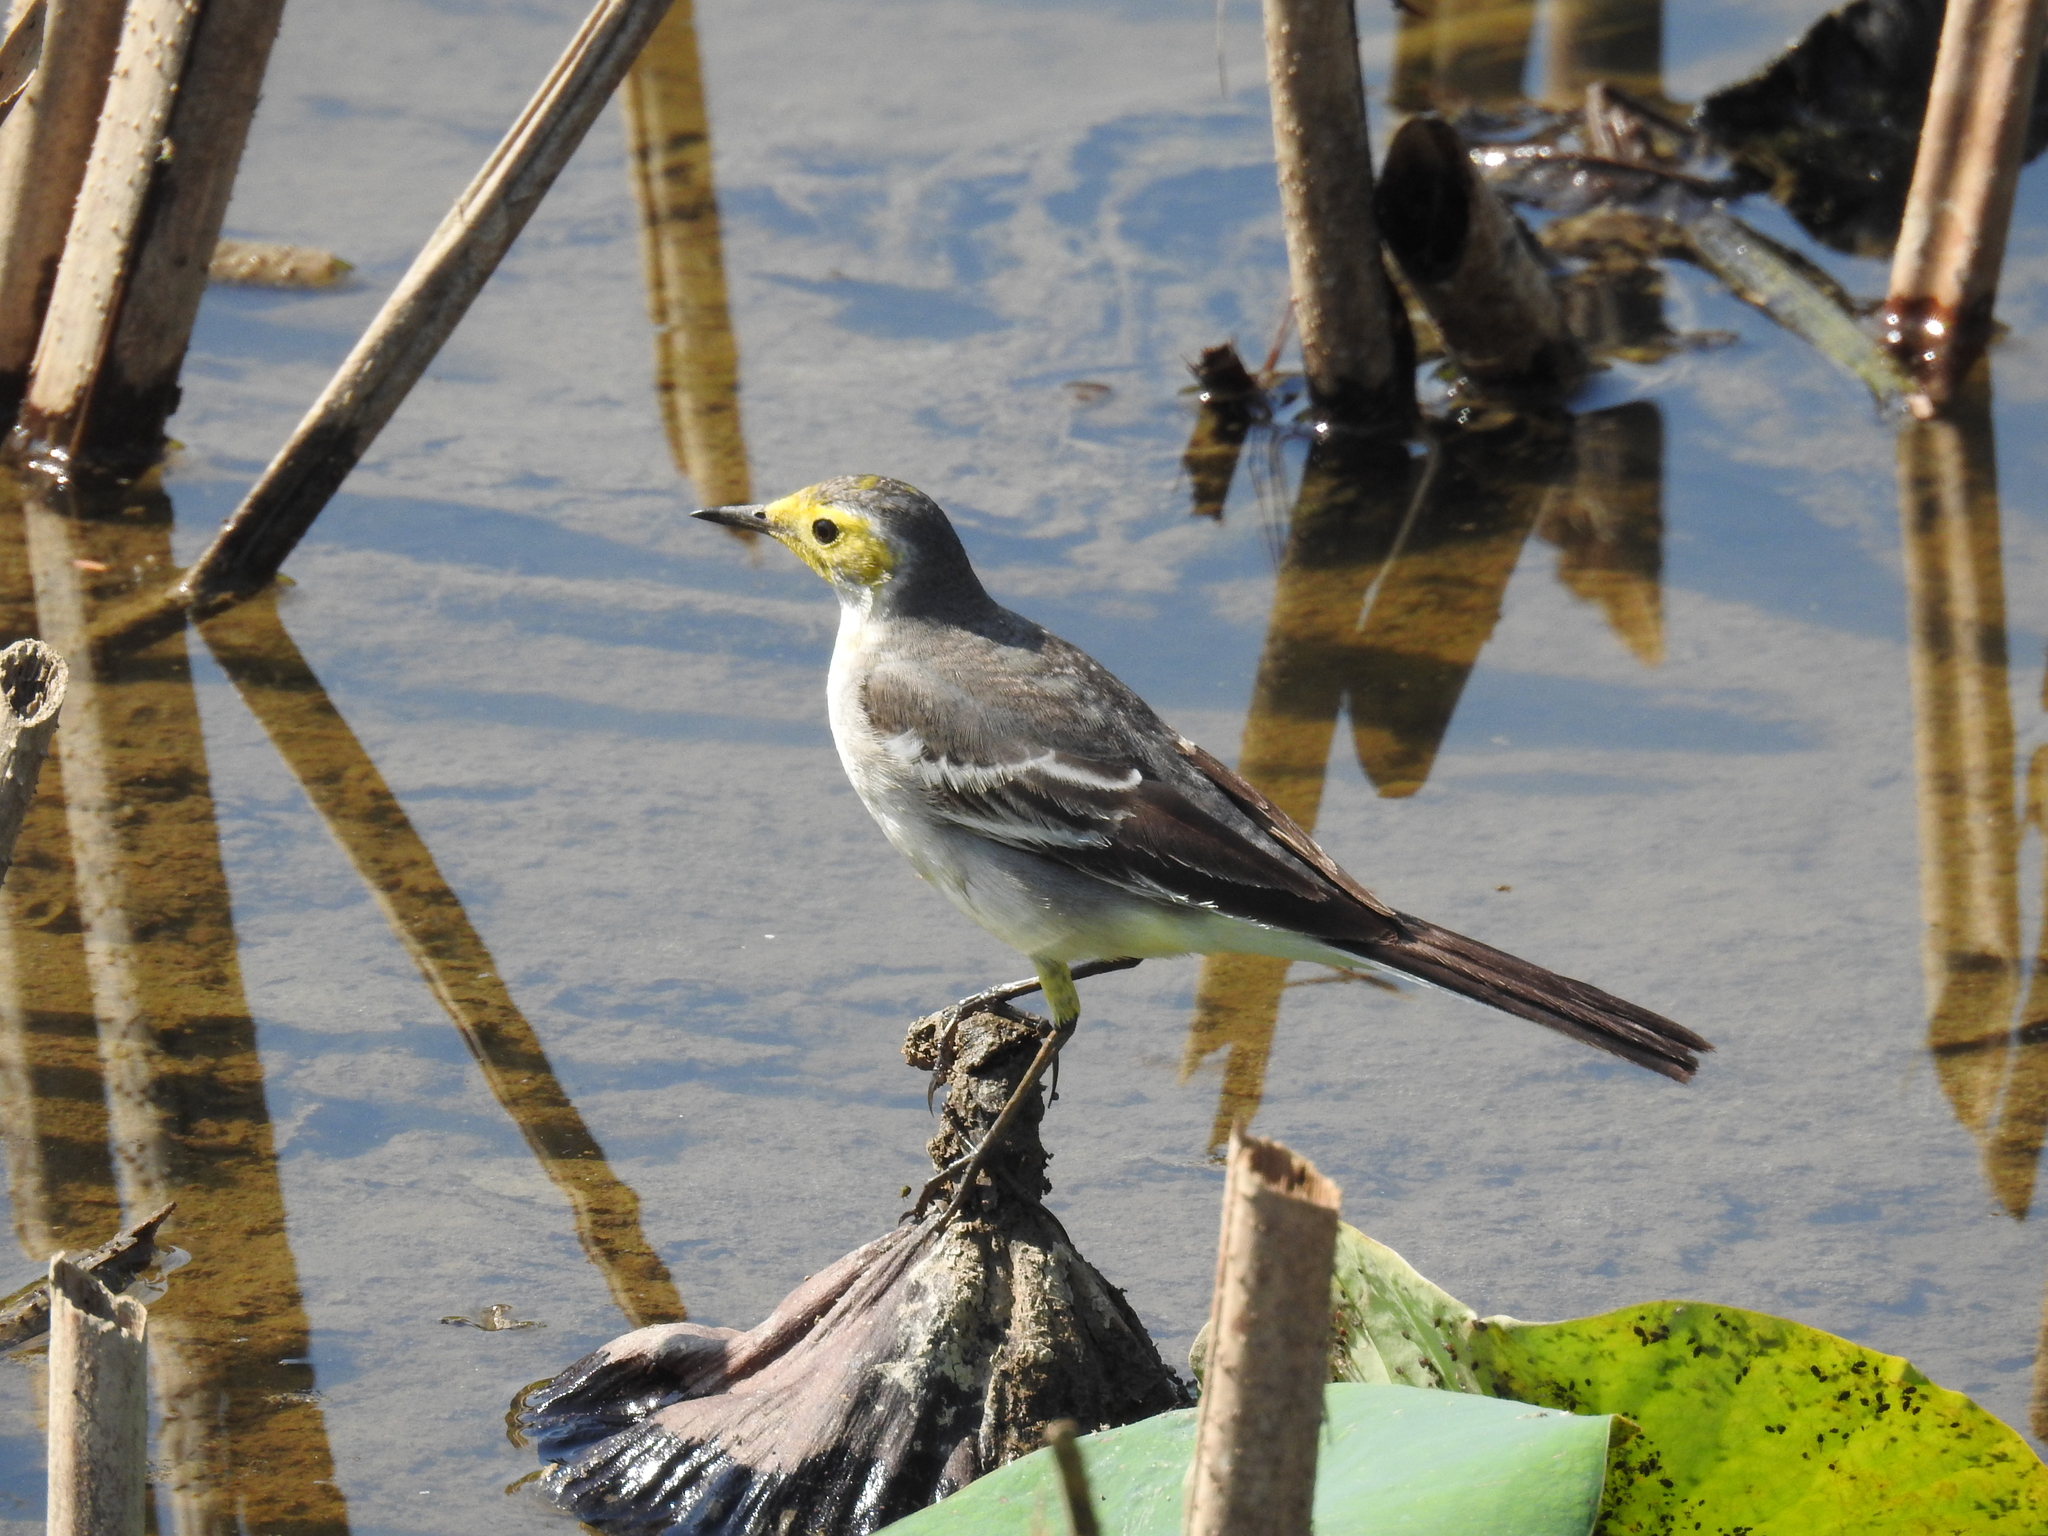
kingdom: Animalia
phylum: Chordata
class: Aves
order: Passeriformes
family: Motacillidae
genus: Motacilla
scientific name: Motacilla citreola
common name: Citrine wagtail
